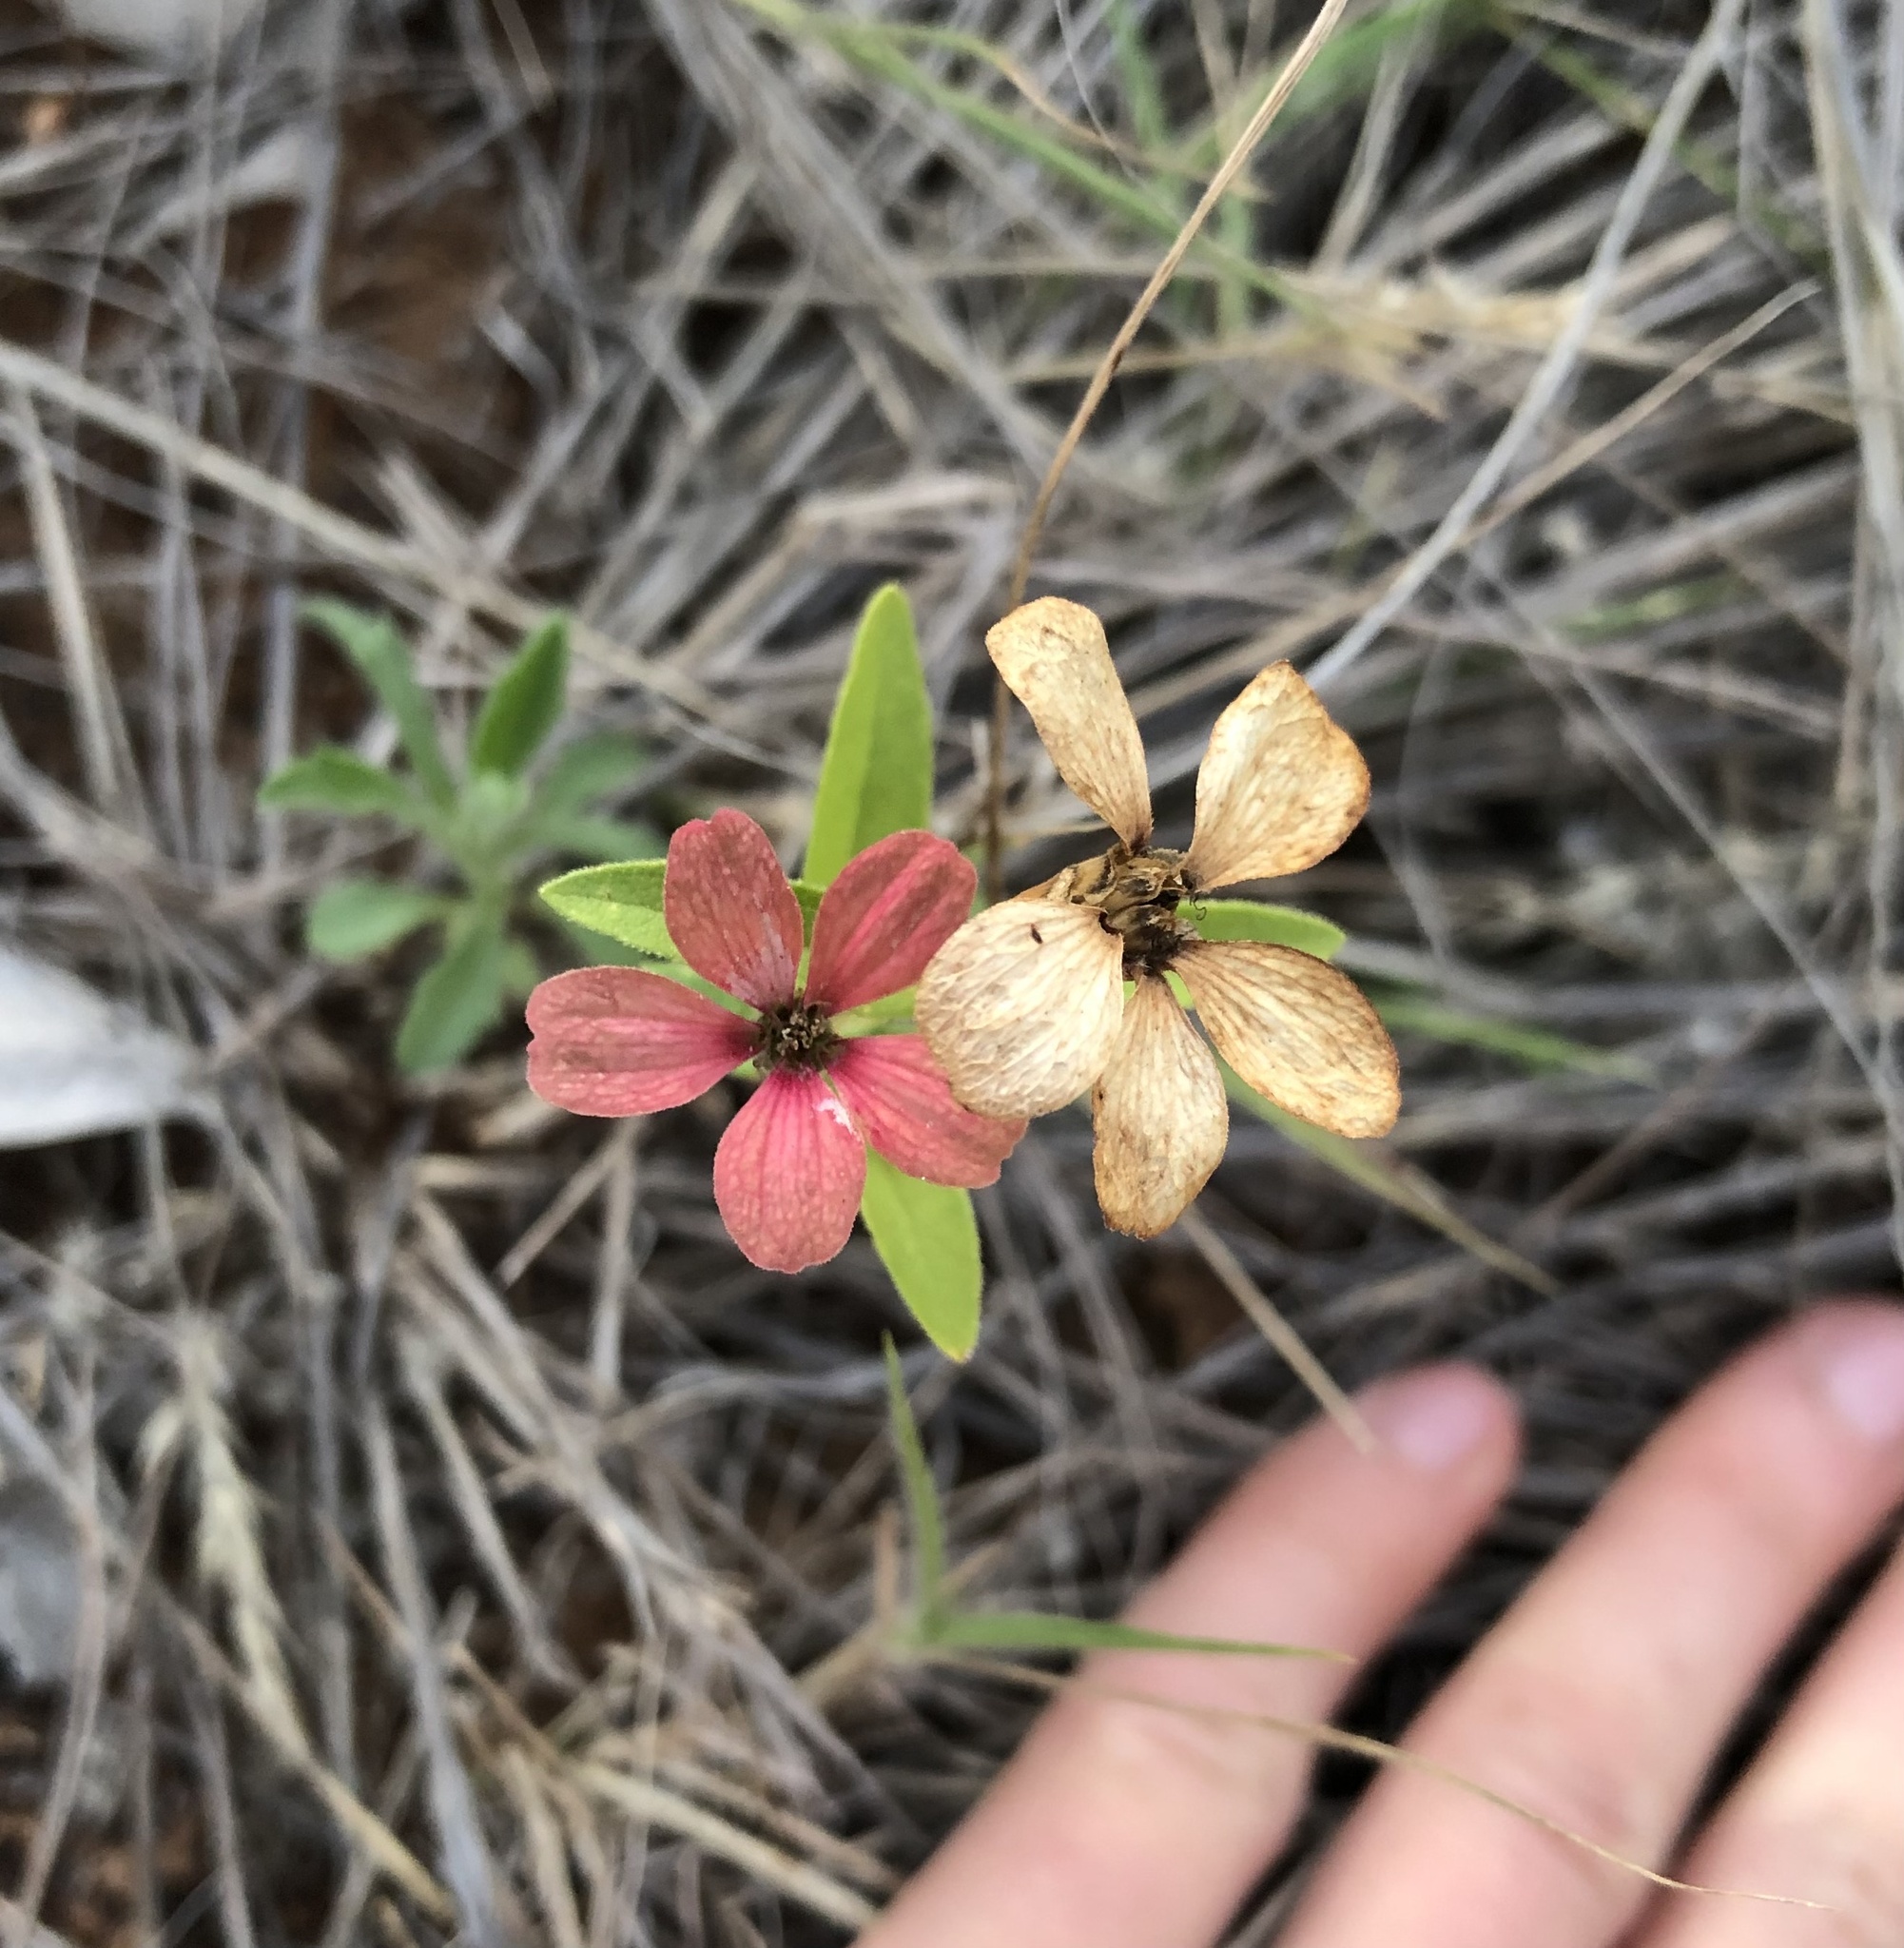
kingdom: Plantae
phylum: Tracheophyta
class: Magnoliopsida
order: Asterales
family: Asteraceae
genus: Zinnia
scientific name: Zinnia peruviana
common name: Peruvian zinnia
